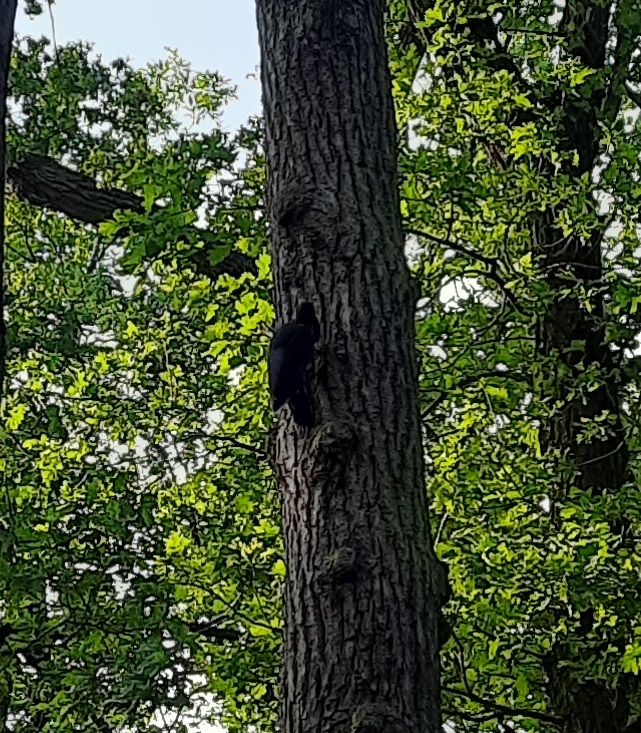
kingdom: Animalia
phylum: Chordata
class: Aves
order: Piciformes
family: Picidae
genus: Dryocopus
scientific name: Dryocopus martius
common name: Black woodpecker
